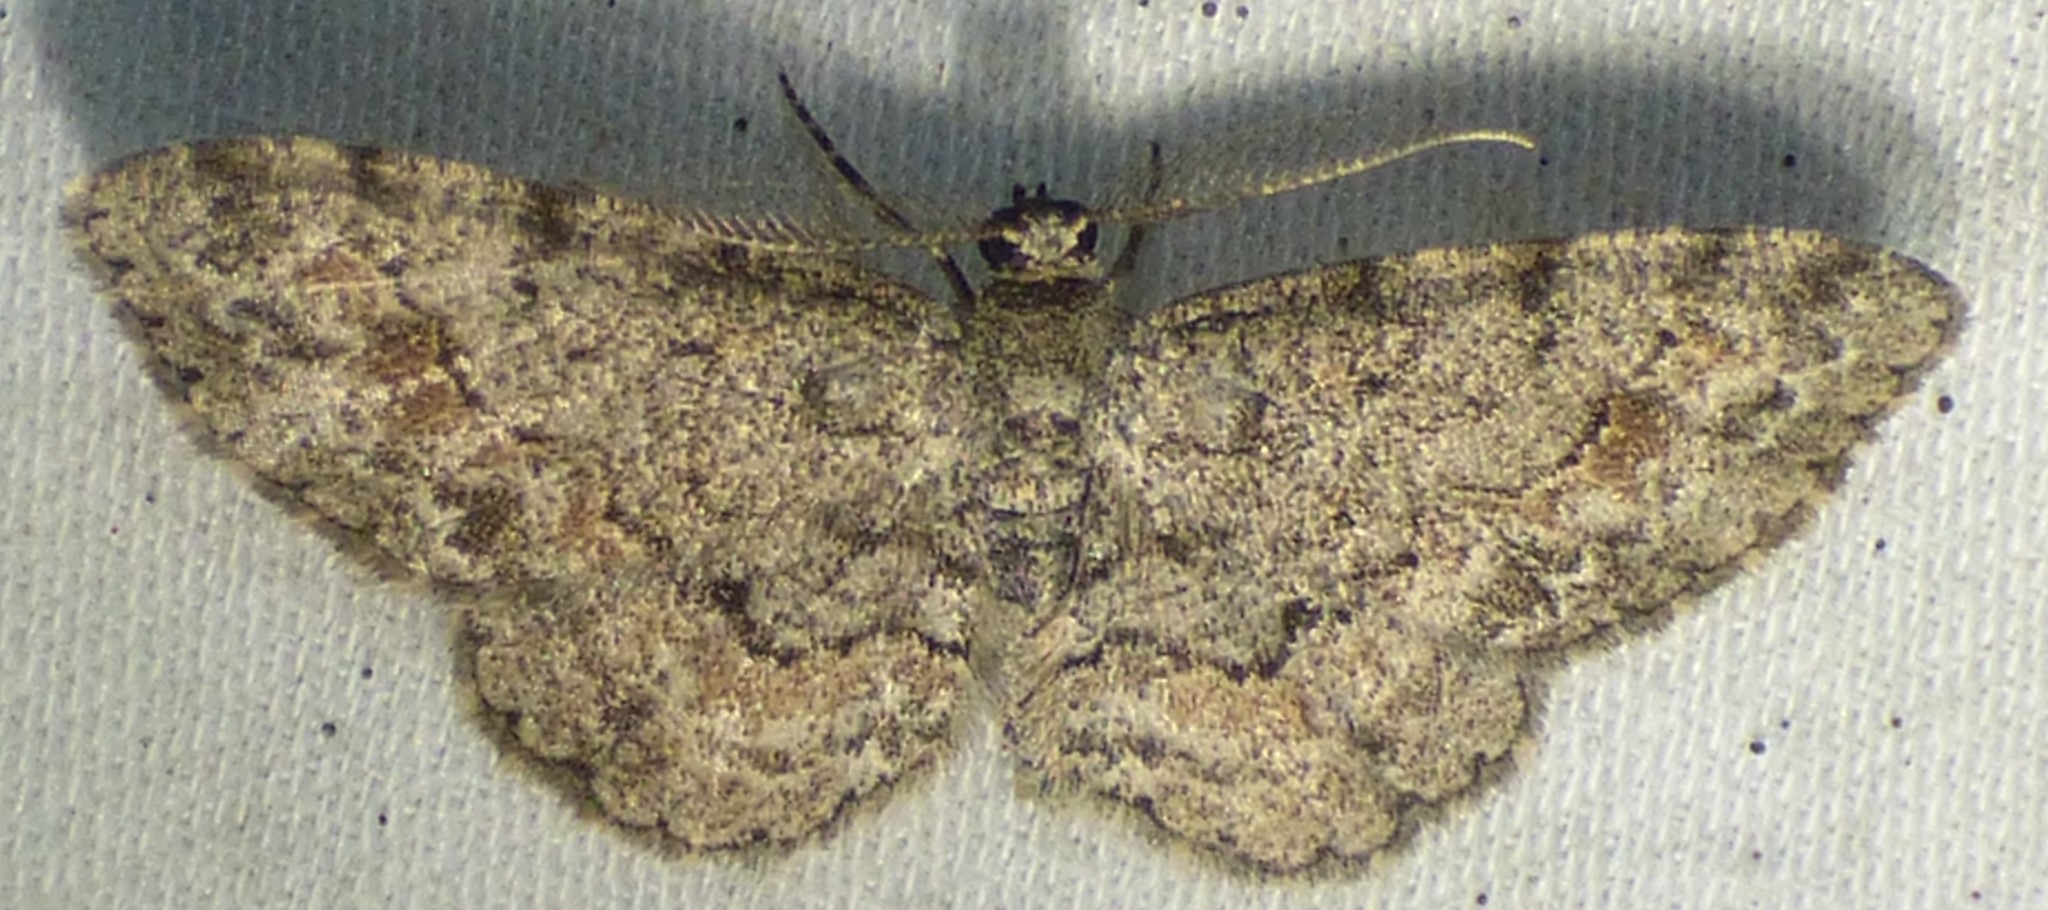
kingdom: Animalia
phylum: Arthropoda
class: Insecta
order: Lepidoptera
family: Geometridae
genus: Glenoides
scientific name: Glenoides texanaria
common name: Texas gray
